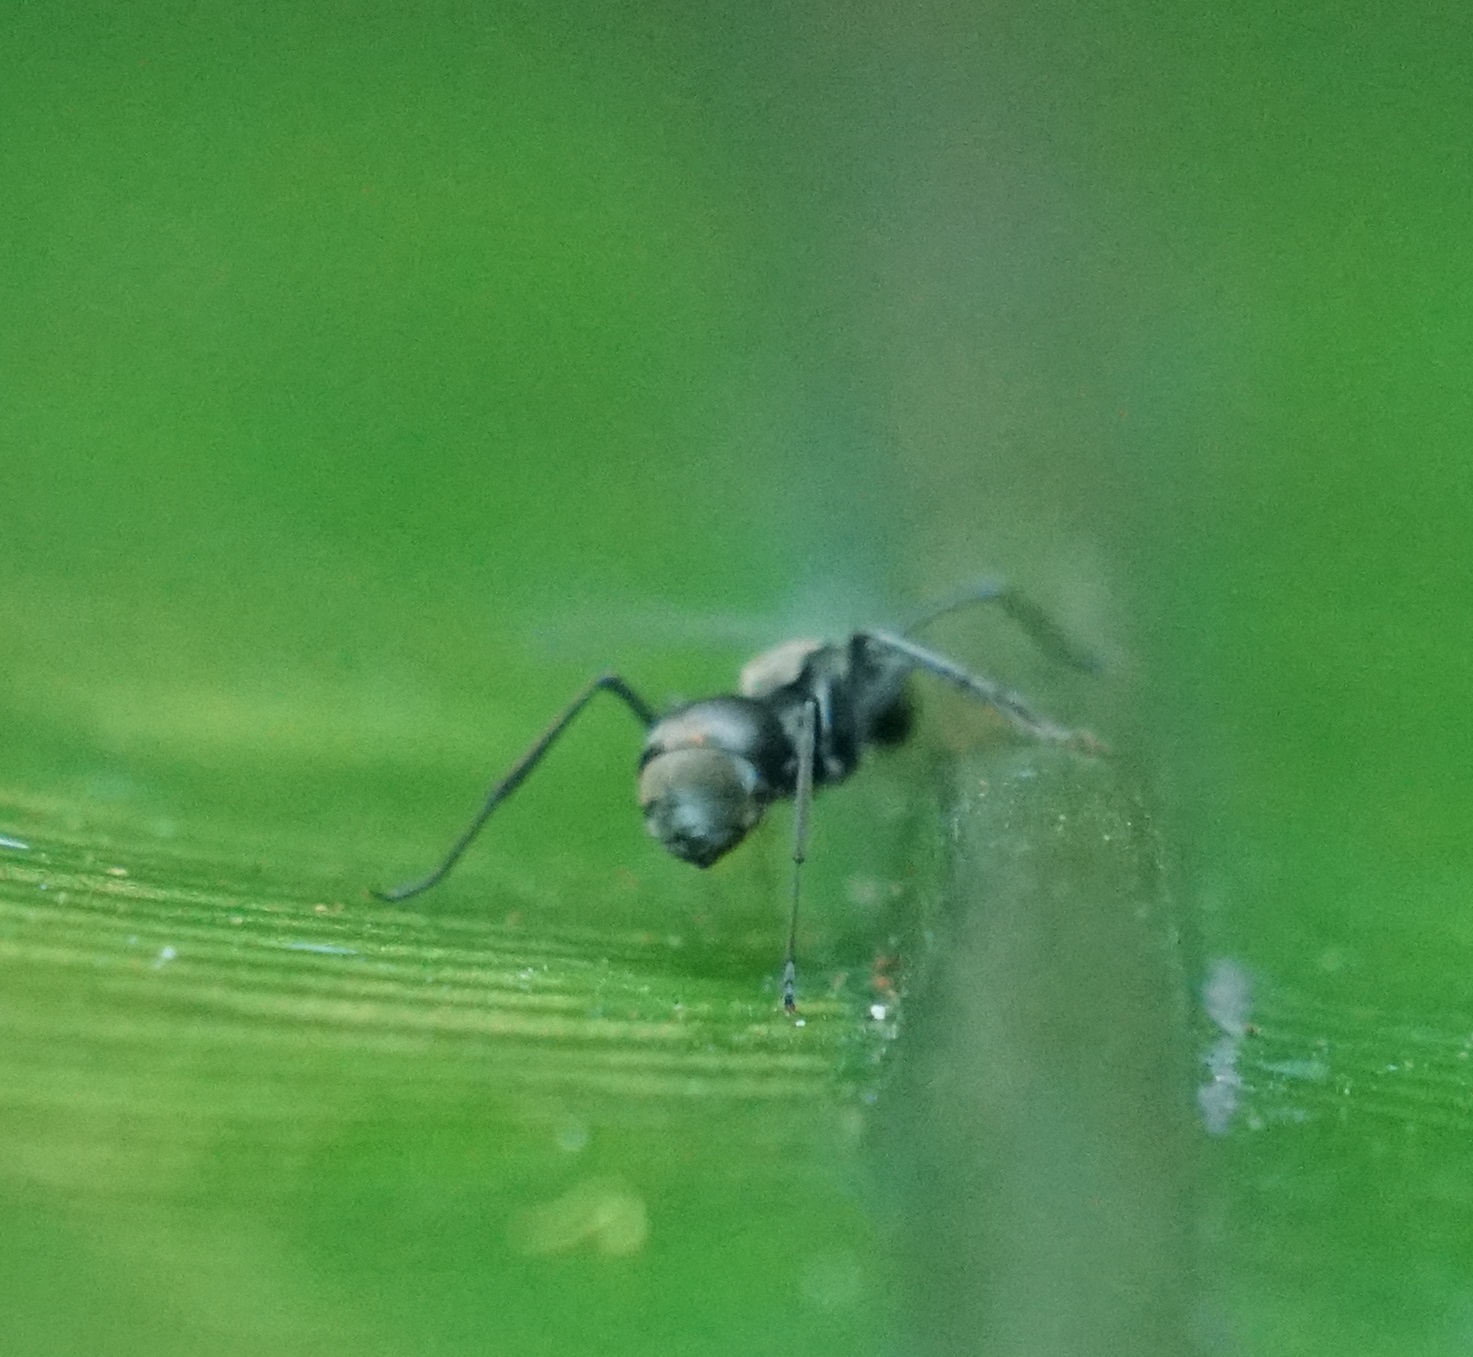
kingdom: Animalia
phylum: Arthropoda
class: Insecta
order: Hymenoptera
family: Formicidae
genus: Polyrhachis
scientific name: Polyrhachis foreli
